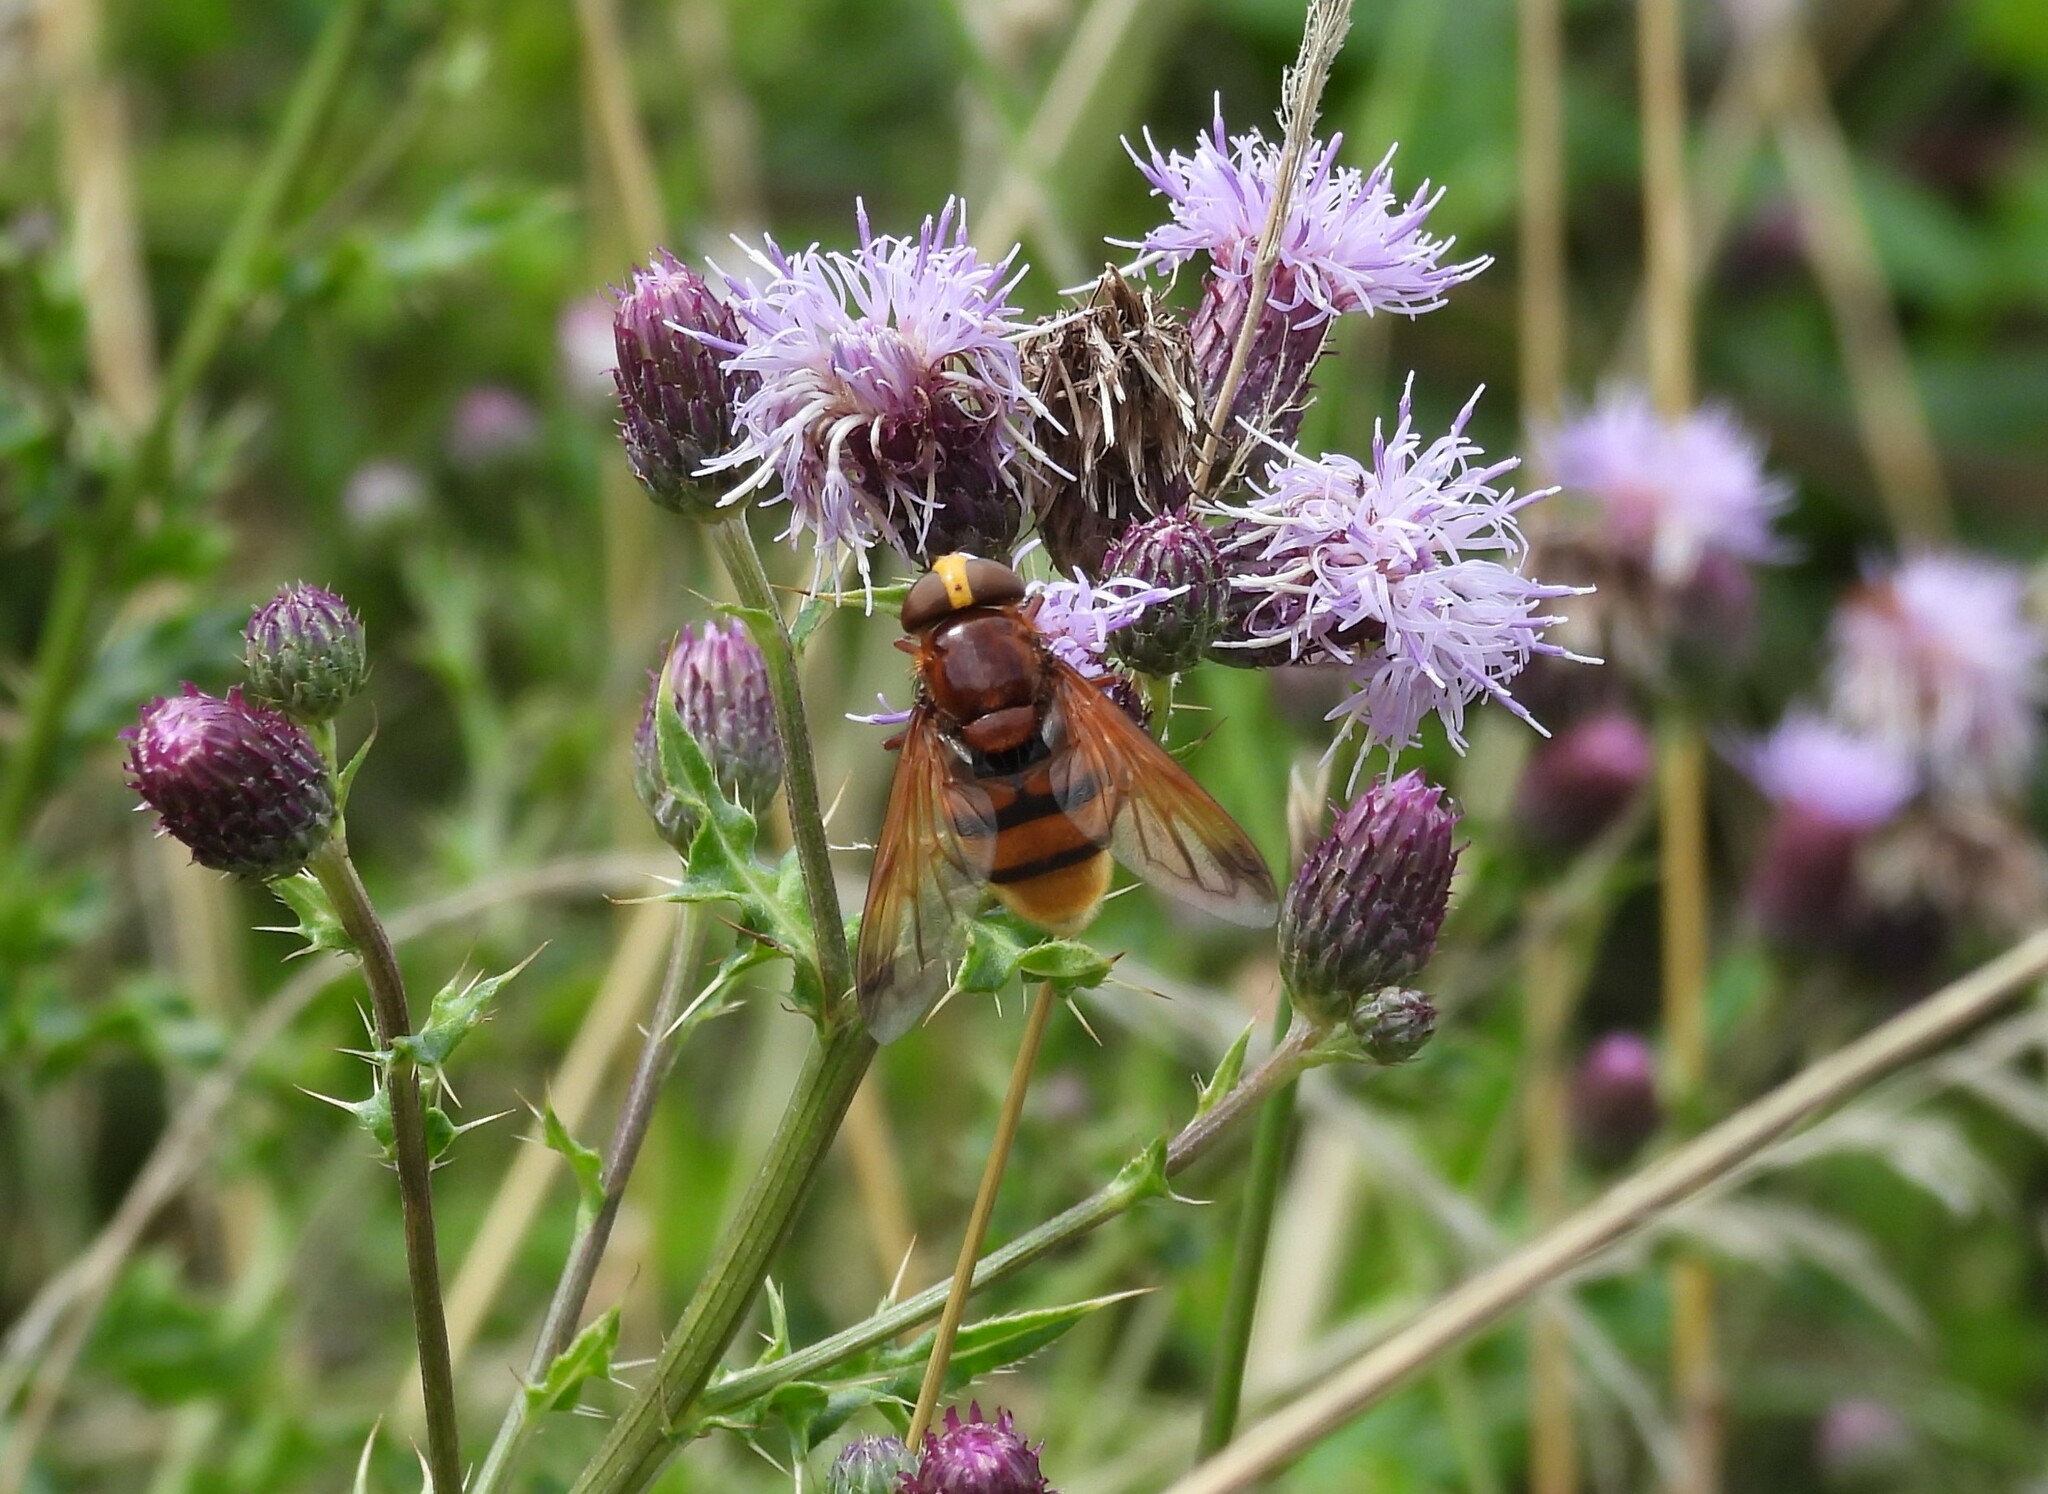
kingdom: Animalia
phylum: Arthropoda
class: Insecta
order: Diptera
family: Syrphidae
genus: Volucella
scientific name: Volucella zonaria
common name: Hornet hoverfly
